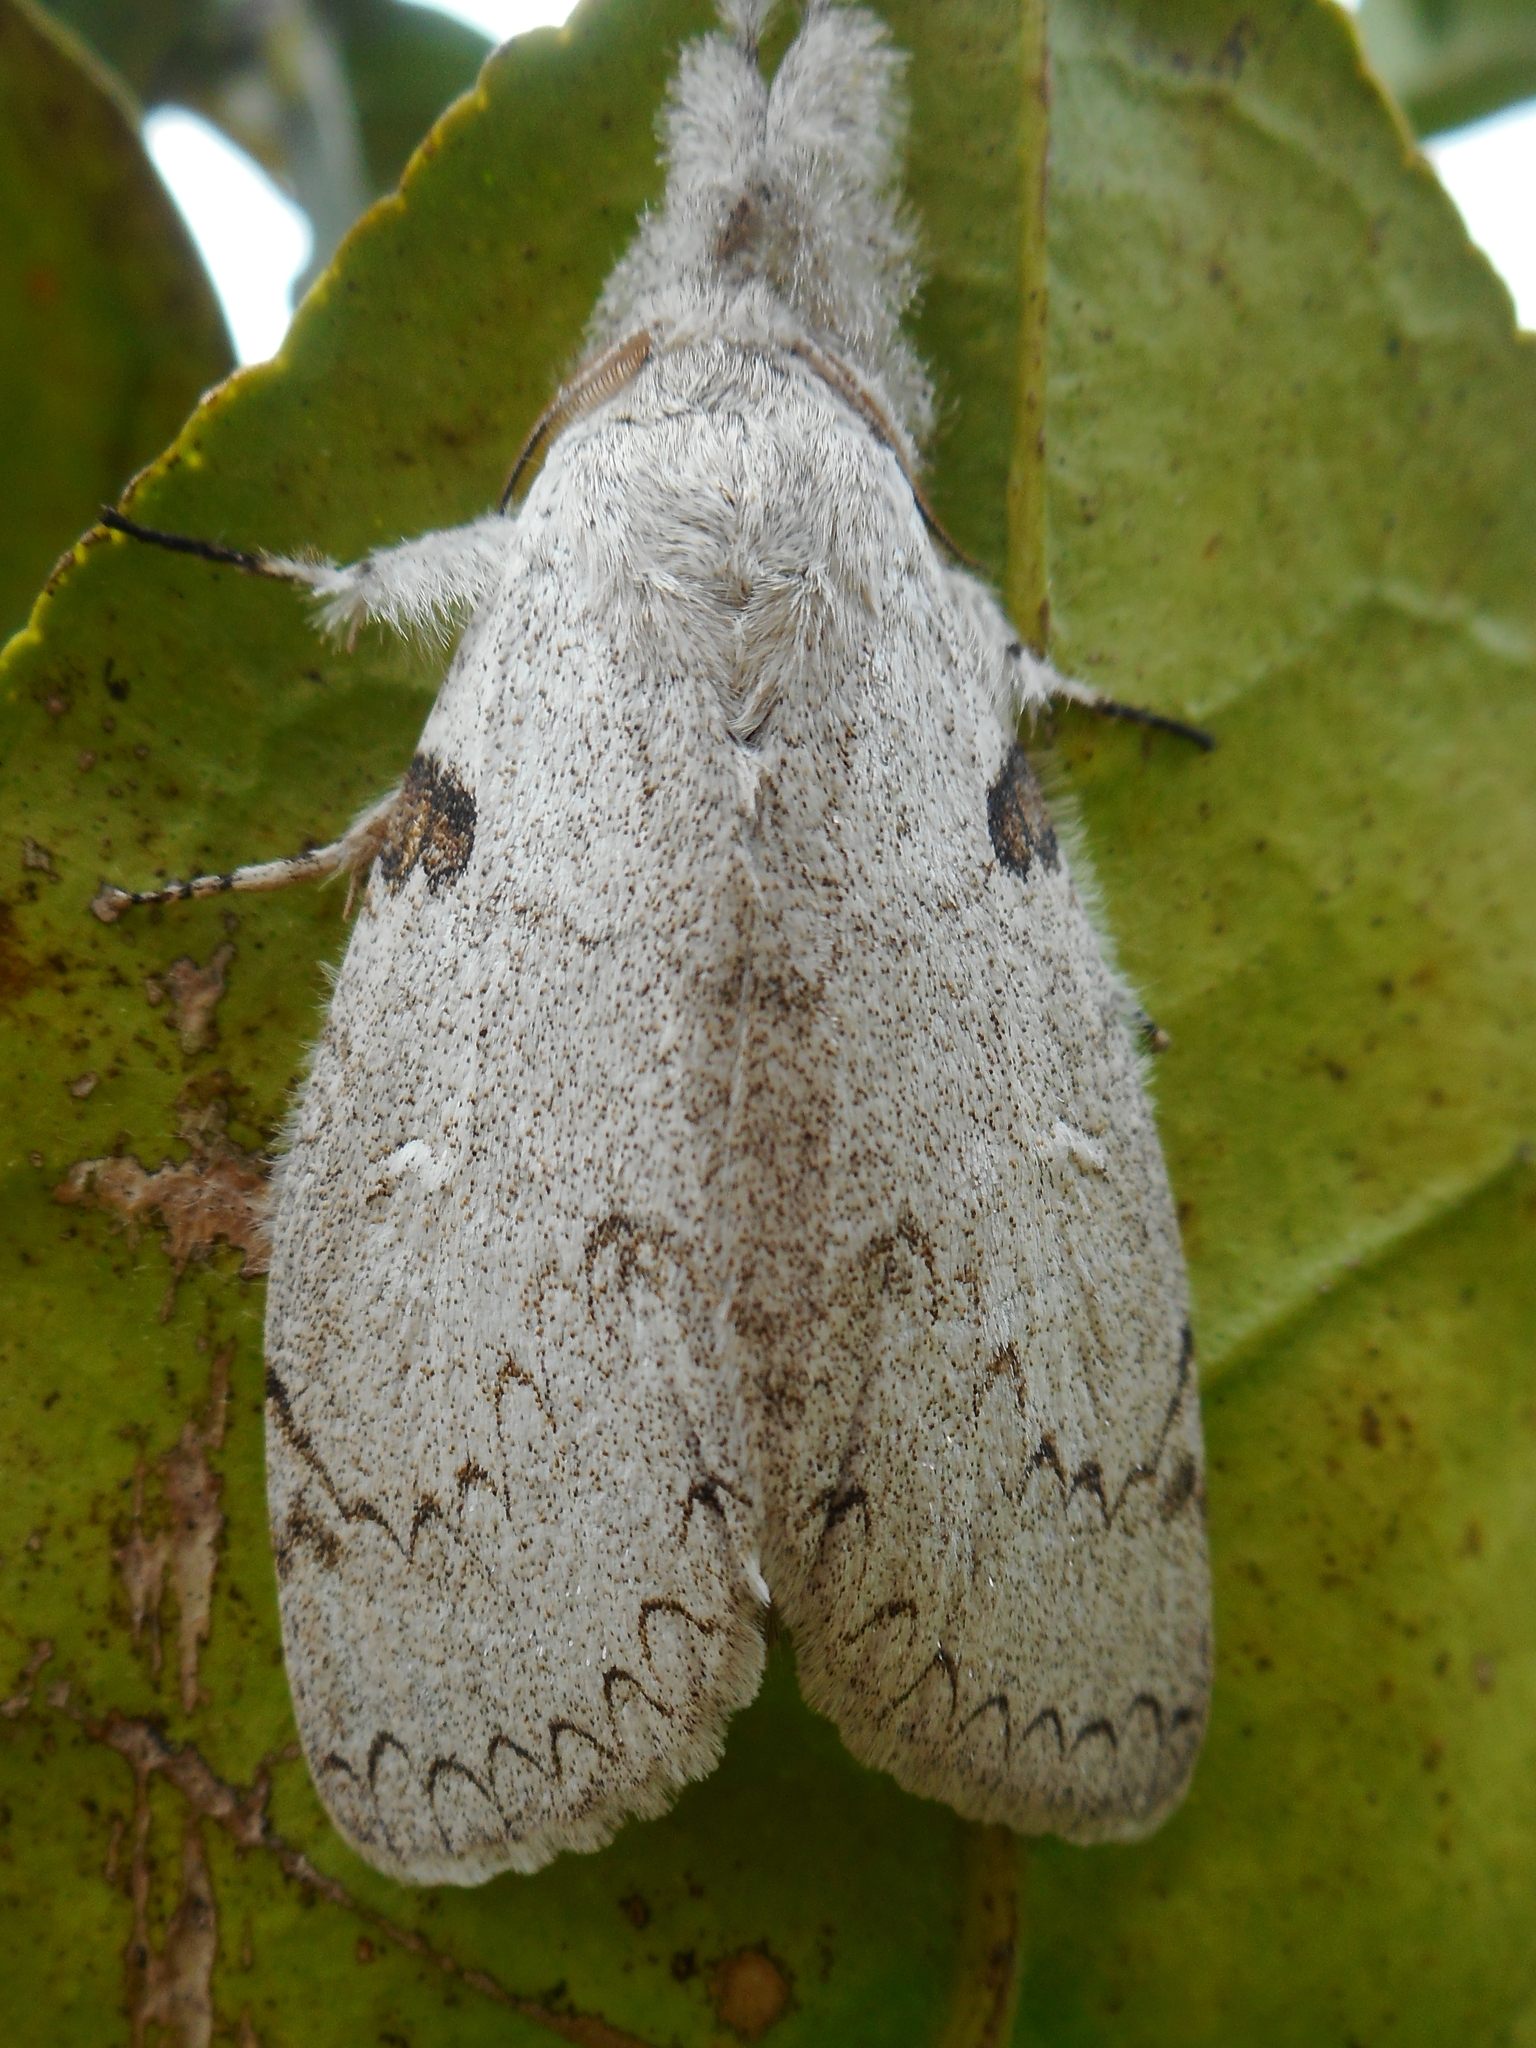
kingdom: Animalia
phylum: Arthropoda
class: Insecta
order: Lepidoptera
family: Erebidae
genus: Calliteara
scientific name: Calliteara diplozona
